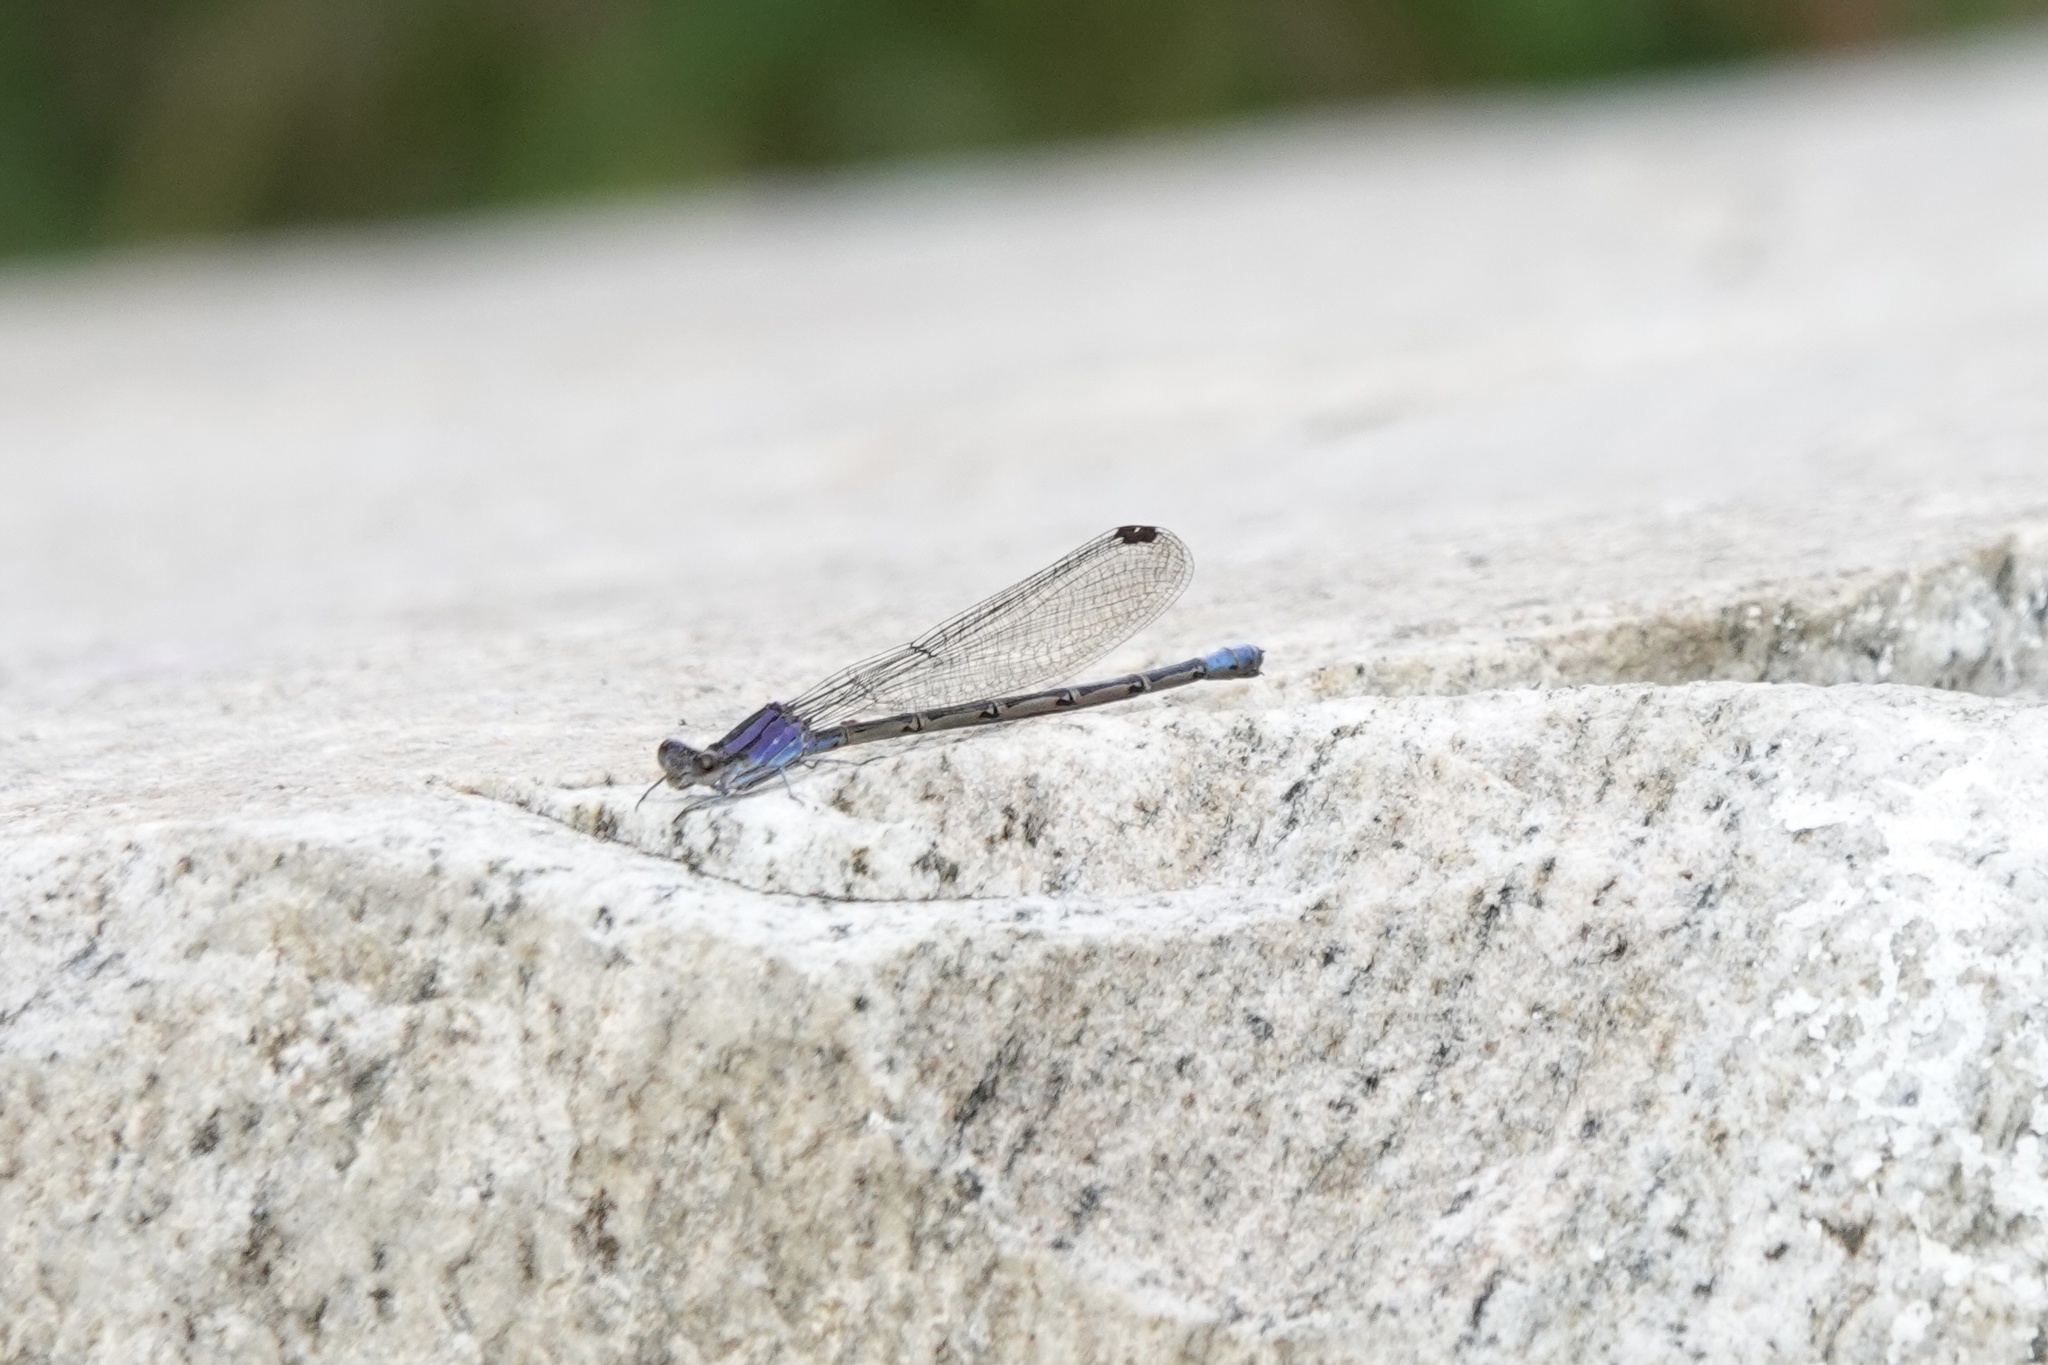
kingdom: Animalia
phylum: Arthropoda
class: Insecta
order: Odonata
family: Coenagrionidae
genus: Argia
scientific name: Argia funebris
